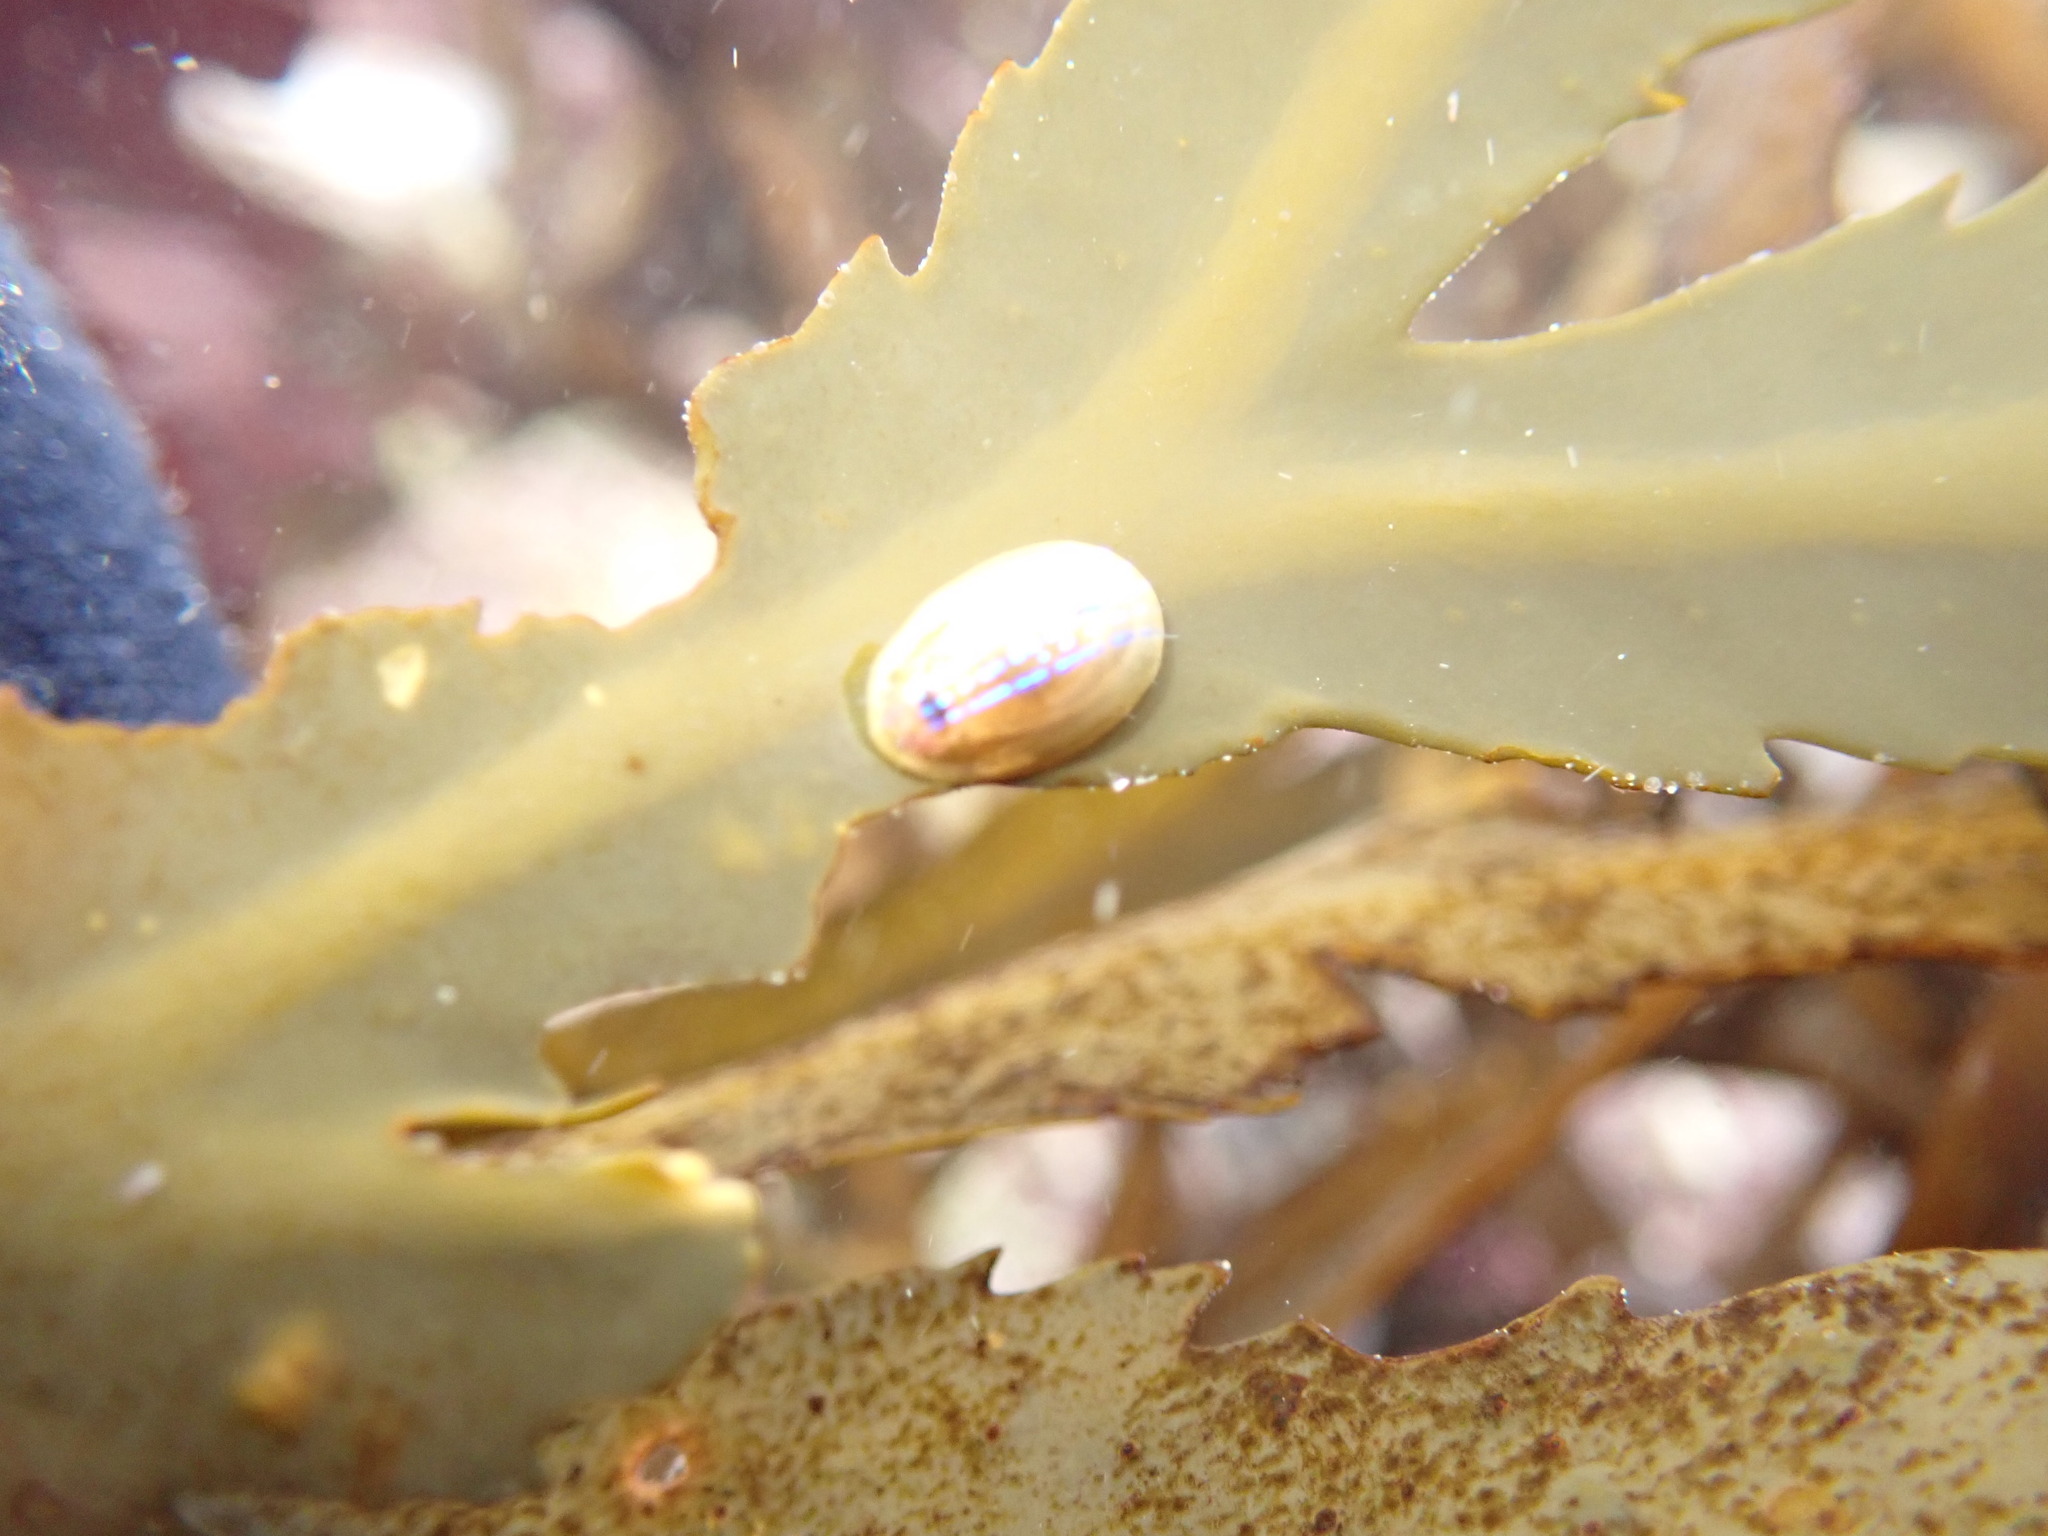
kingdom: Animalia
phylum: Mollusca
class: Gastropoda
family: Patellidae
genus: Patella
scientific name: Patella pellucida
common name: Blue-rayed limpet
